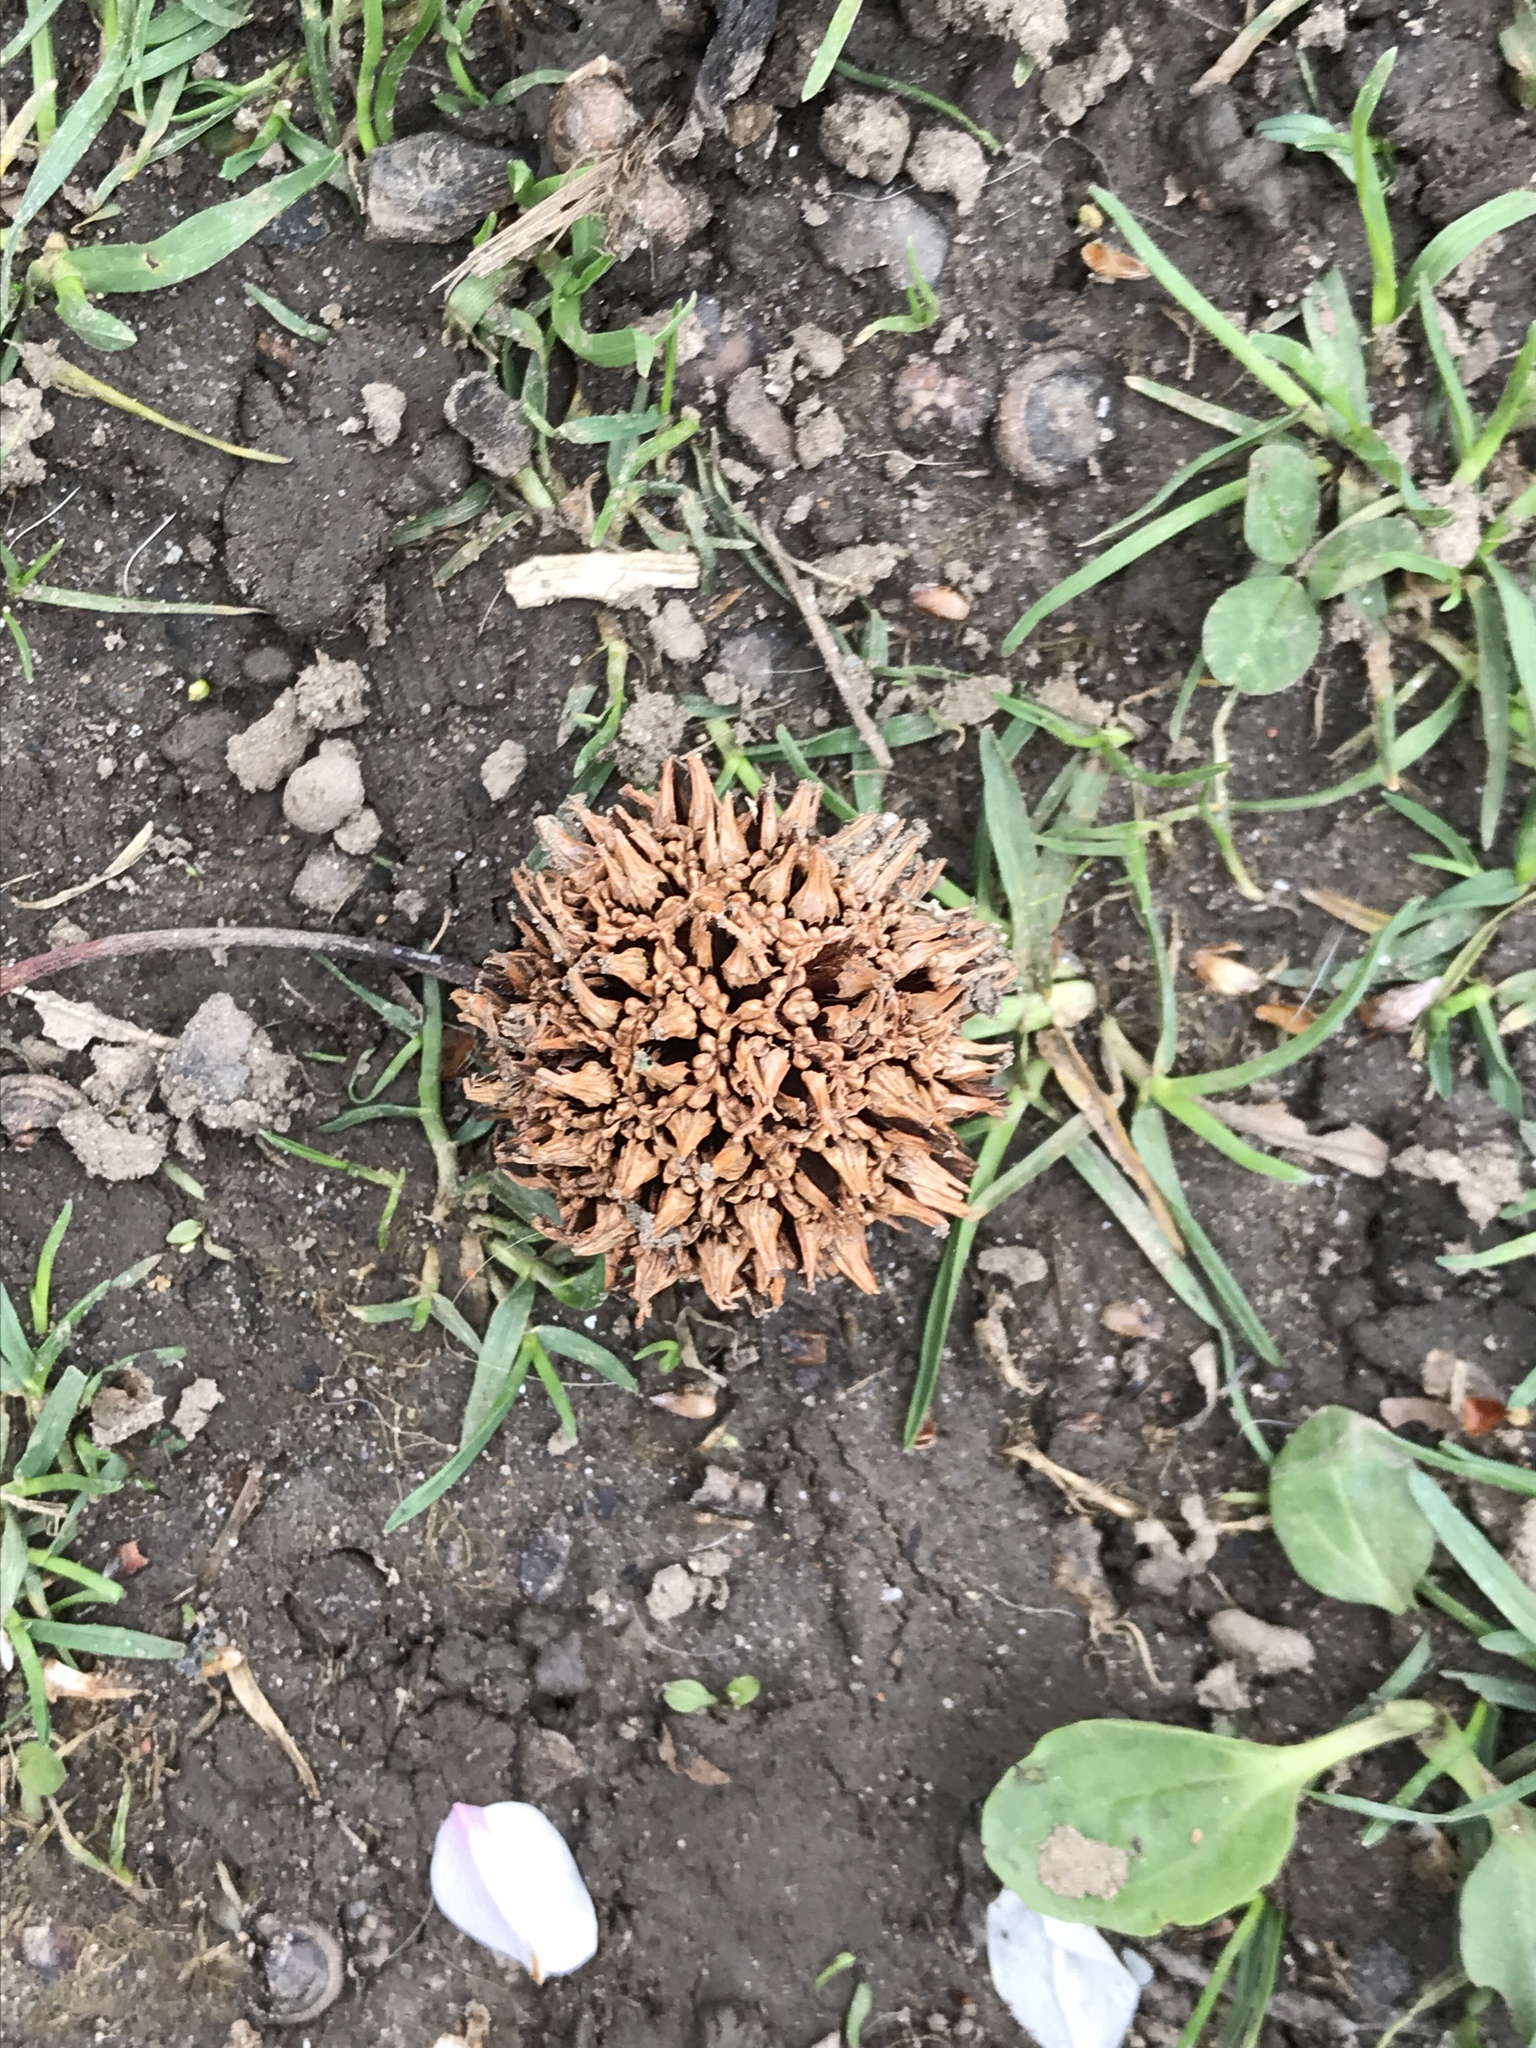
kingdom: Plantae
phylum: Tracheophyta
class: Magnoliopsida
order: Saxifragales
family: Altingiaceae
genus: Liquidambar
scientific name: Liquidambar styraciflua
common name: Sweet gum
